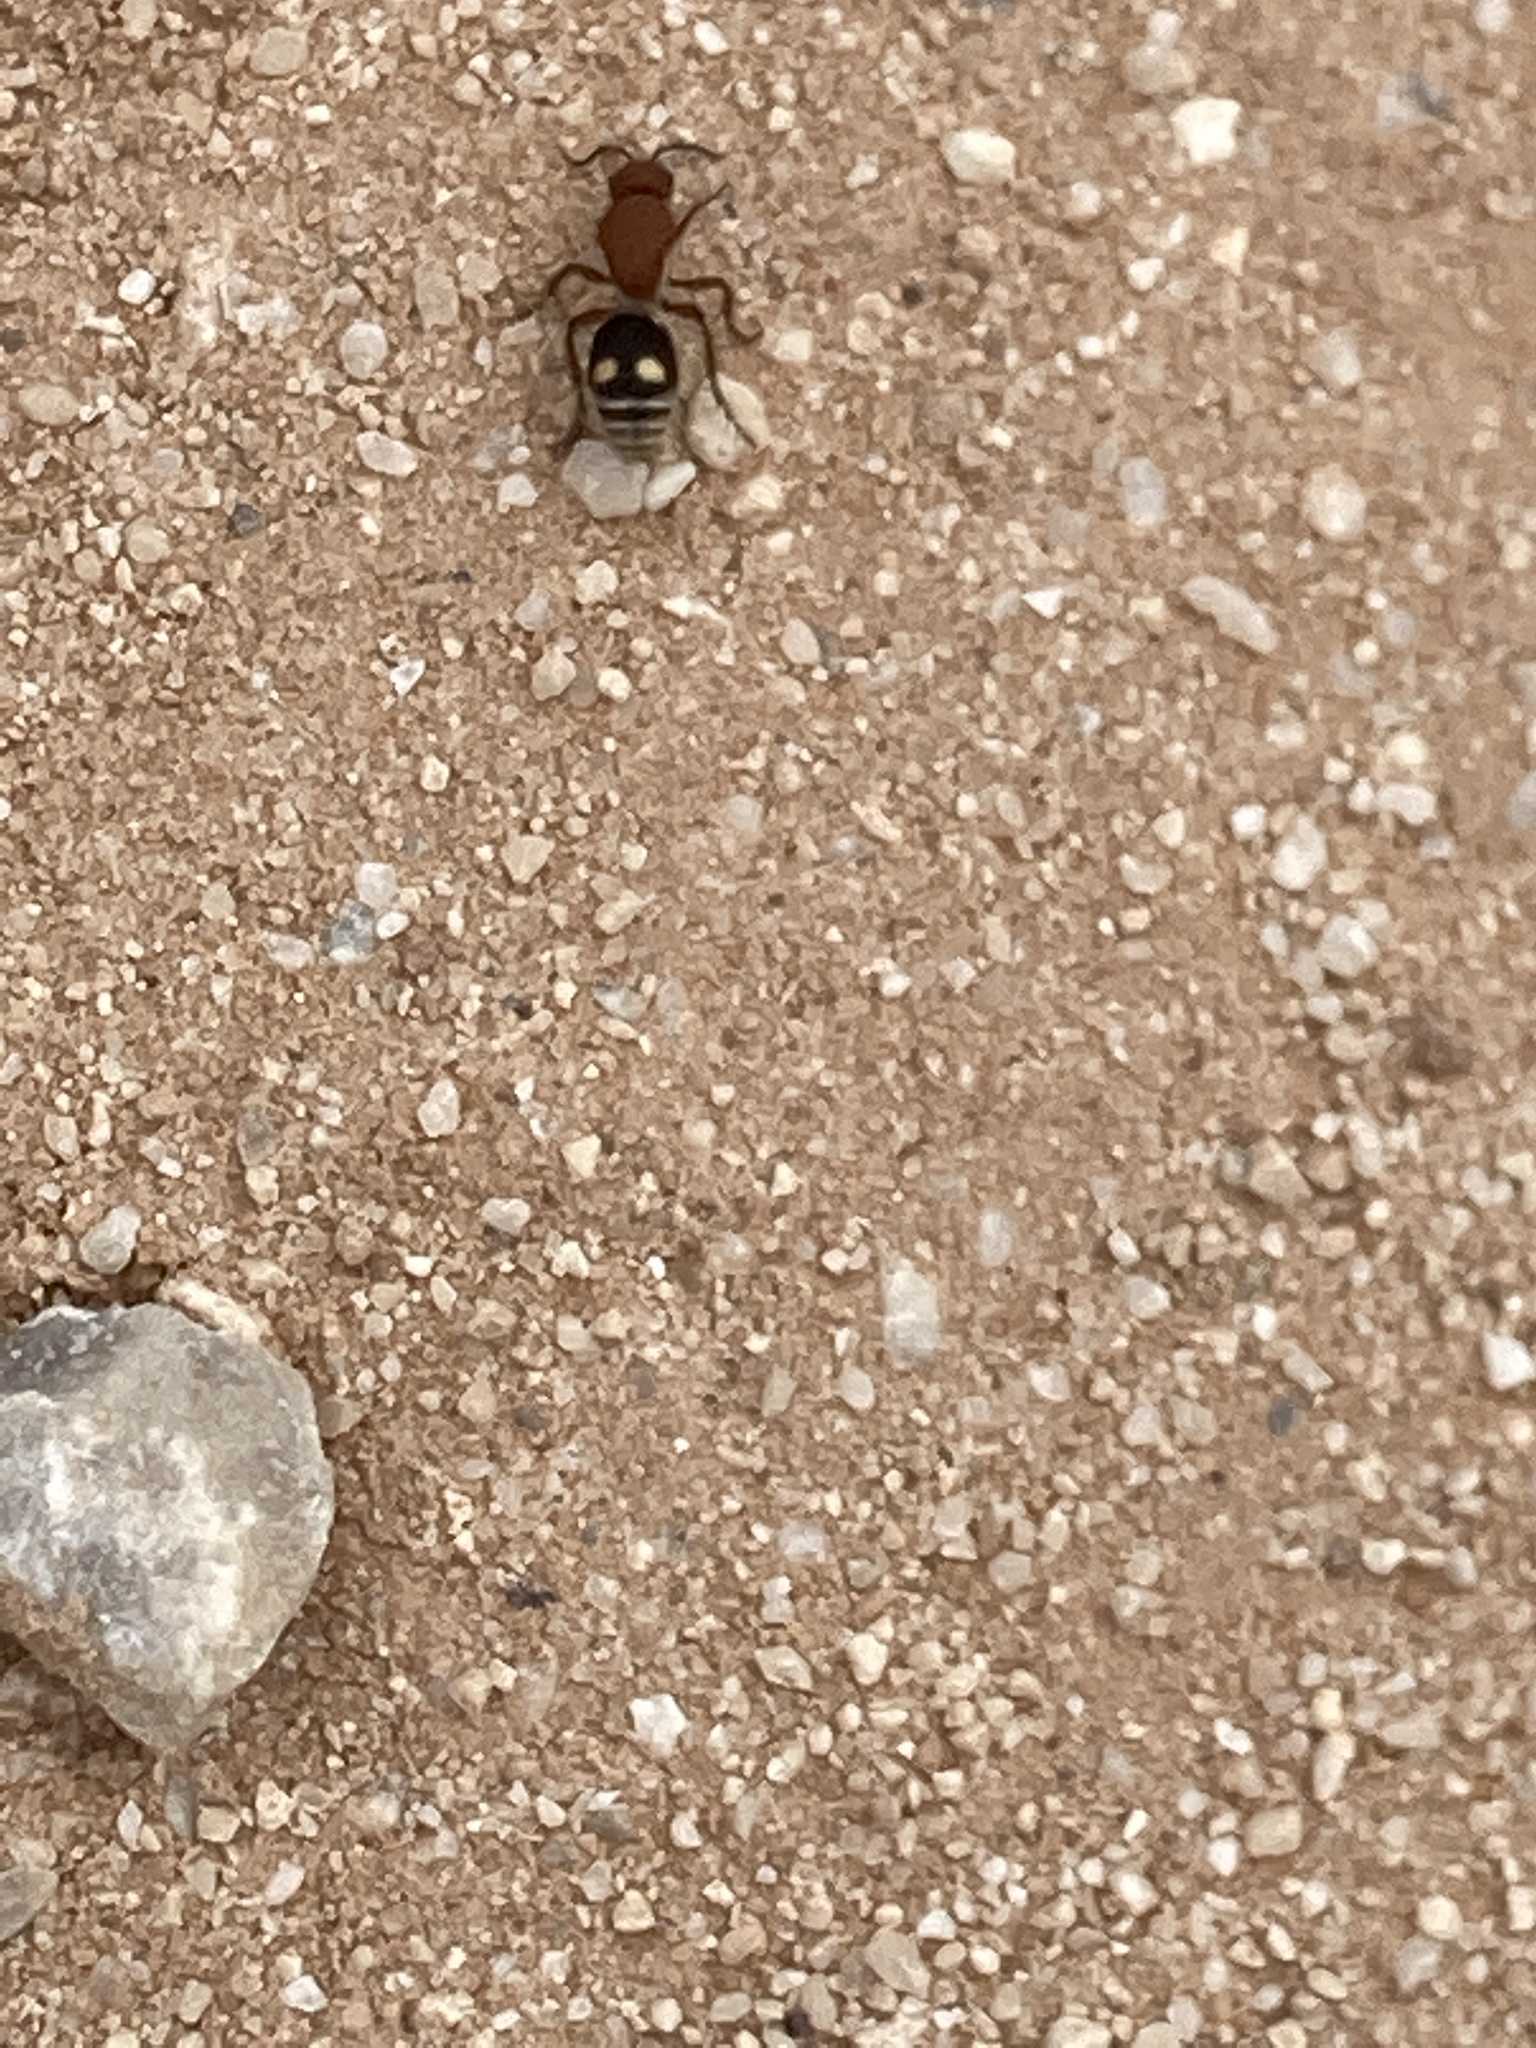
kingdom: Animalia
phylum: Arthropoda
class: Insecta
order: Hymenoptera
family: Mutillidae
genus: Dasymutilla
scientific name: Dasymutilla
